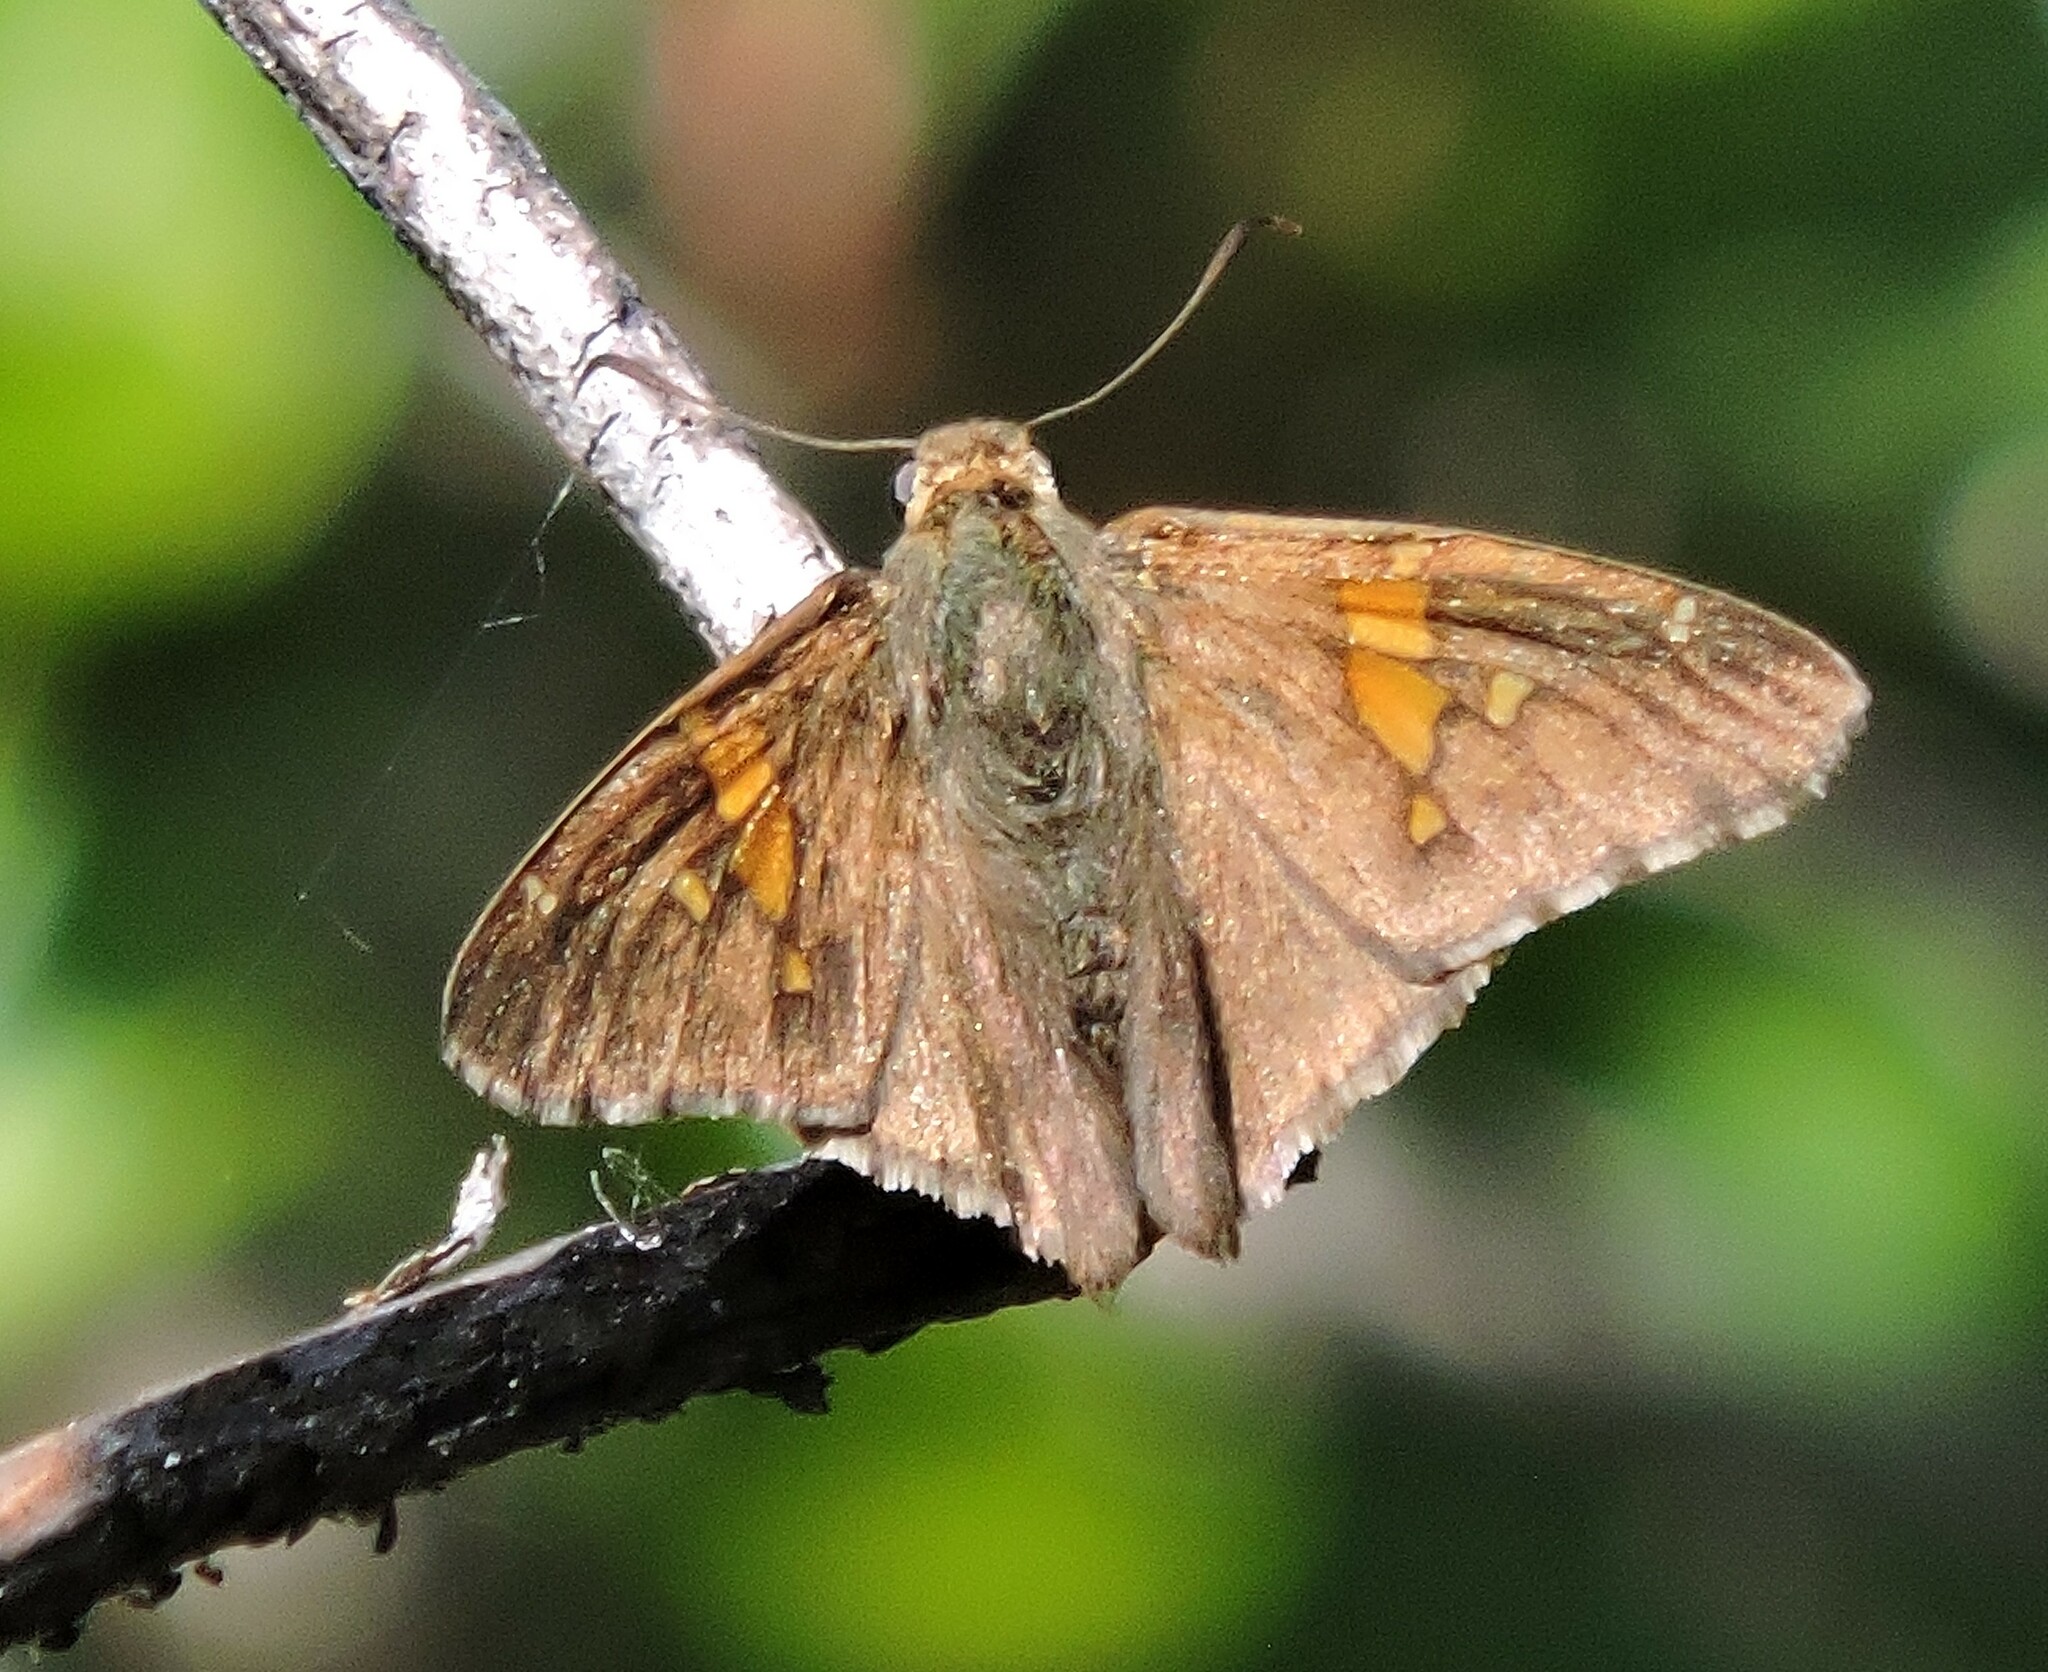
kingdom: Animalia
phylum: Arthropoda
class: Insecta
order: Lepidoptera
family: Hesperiidae
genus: Epargyreus
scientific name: Epargyreus clarus
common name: Silver-spotted skipper
